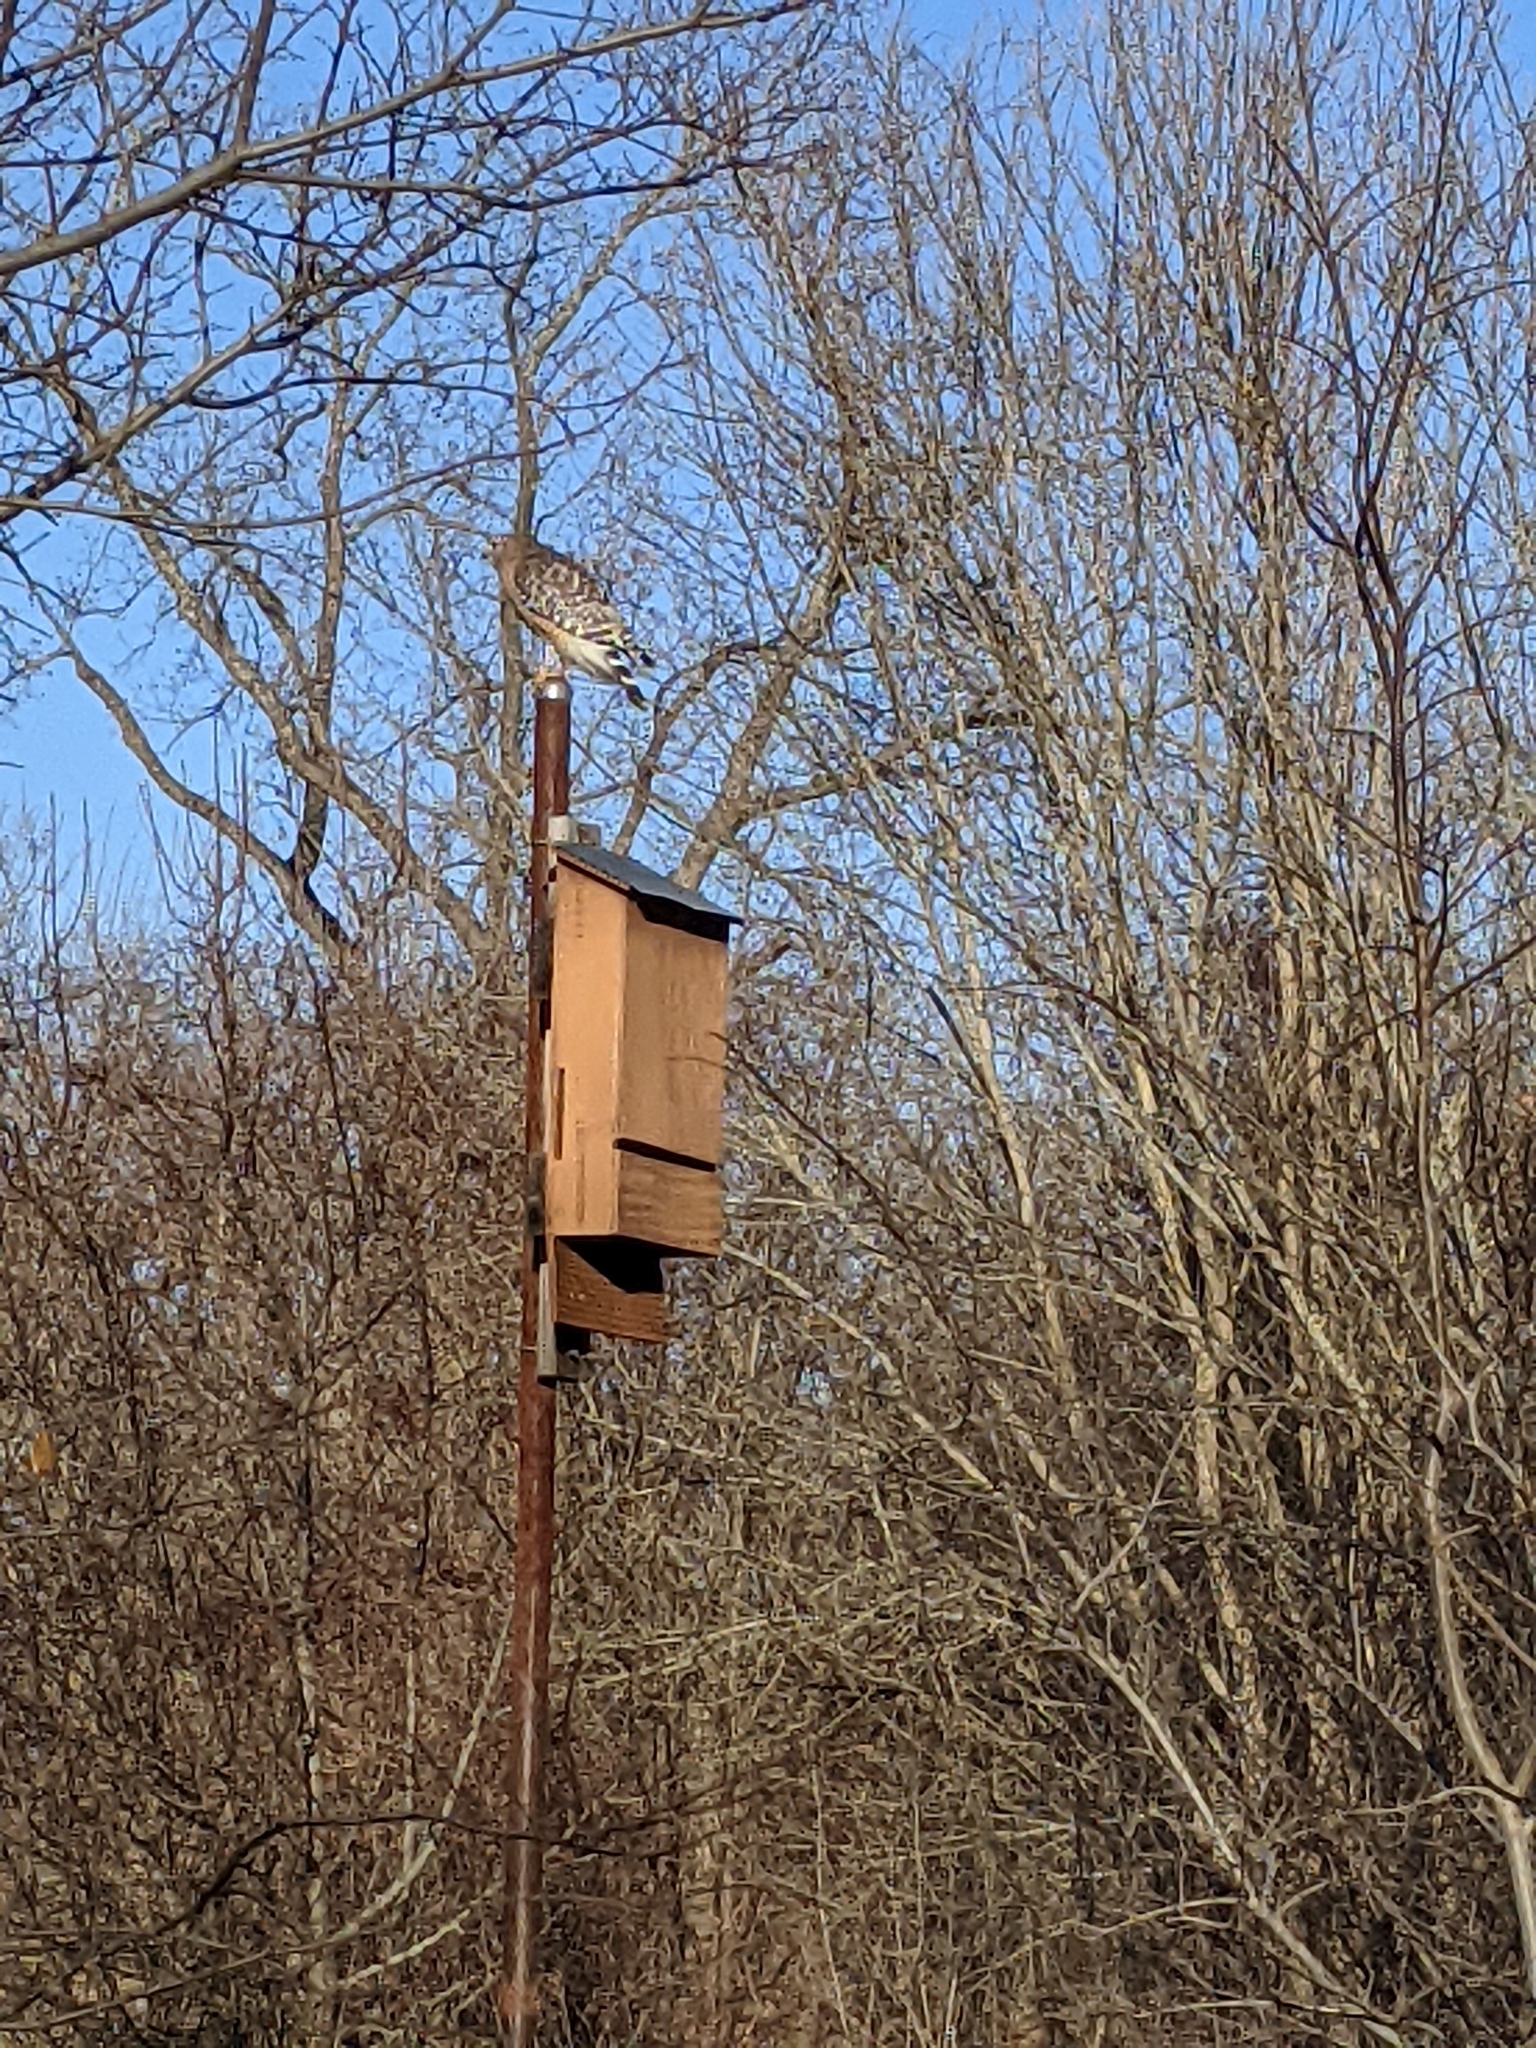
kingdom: Animalia
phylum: Chordata
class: Aves
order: Accipitriformes
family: Accipitridae
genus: Buteo
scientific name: Buteo lineatus
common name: Red-shouldered hawk
